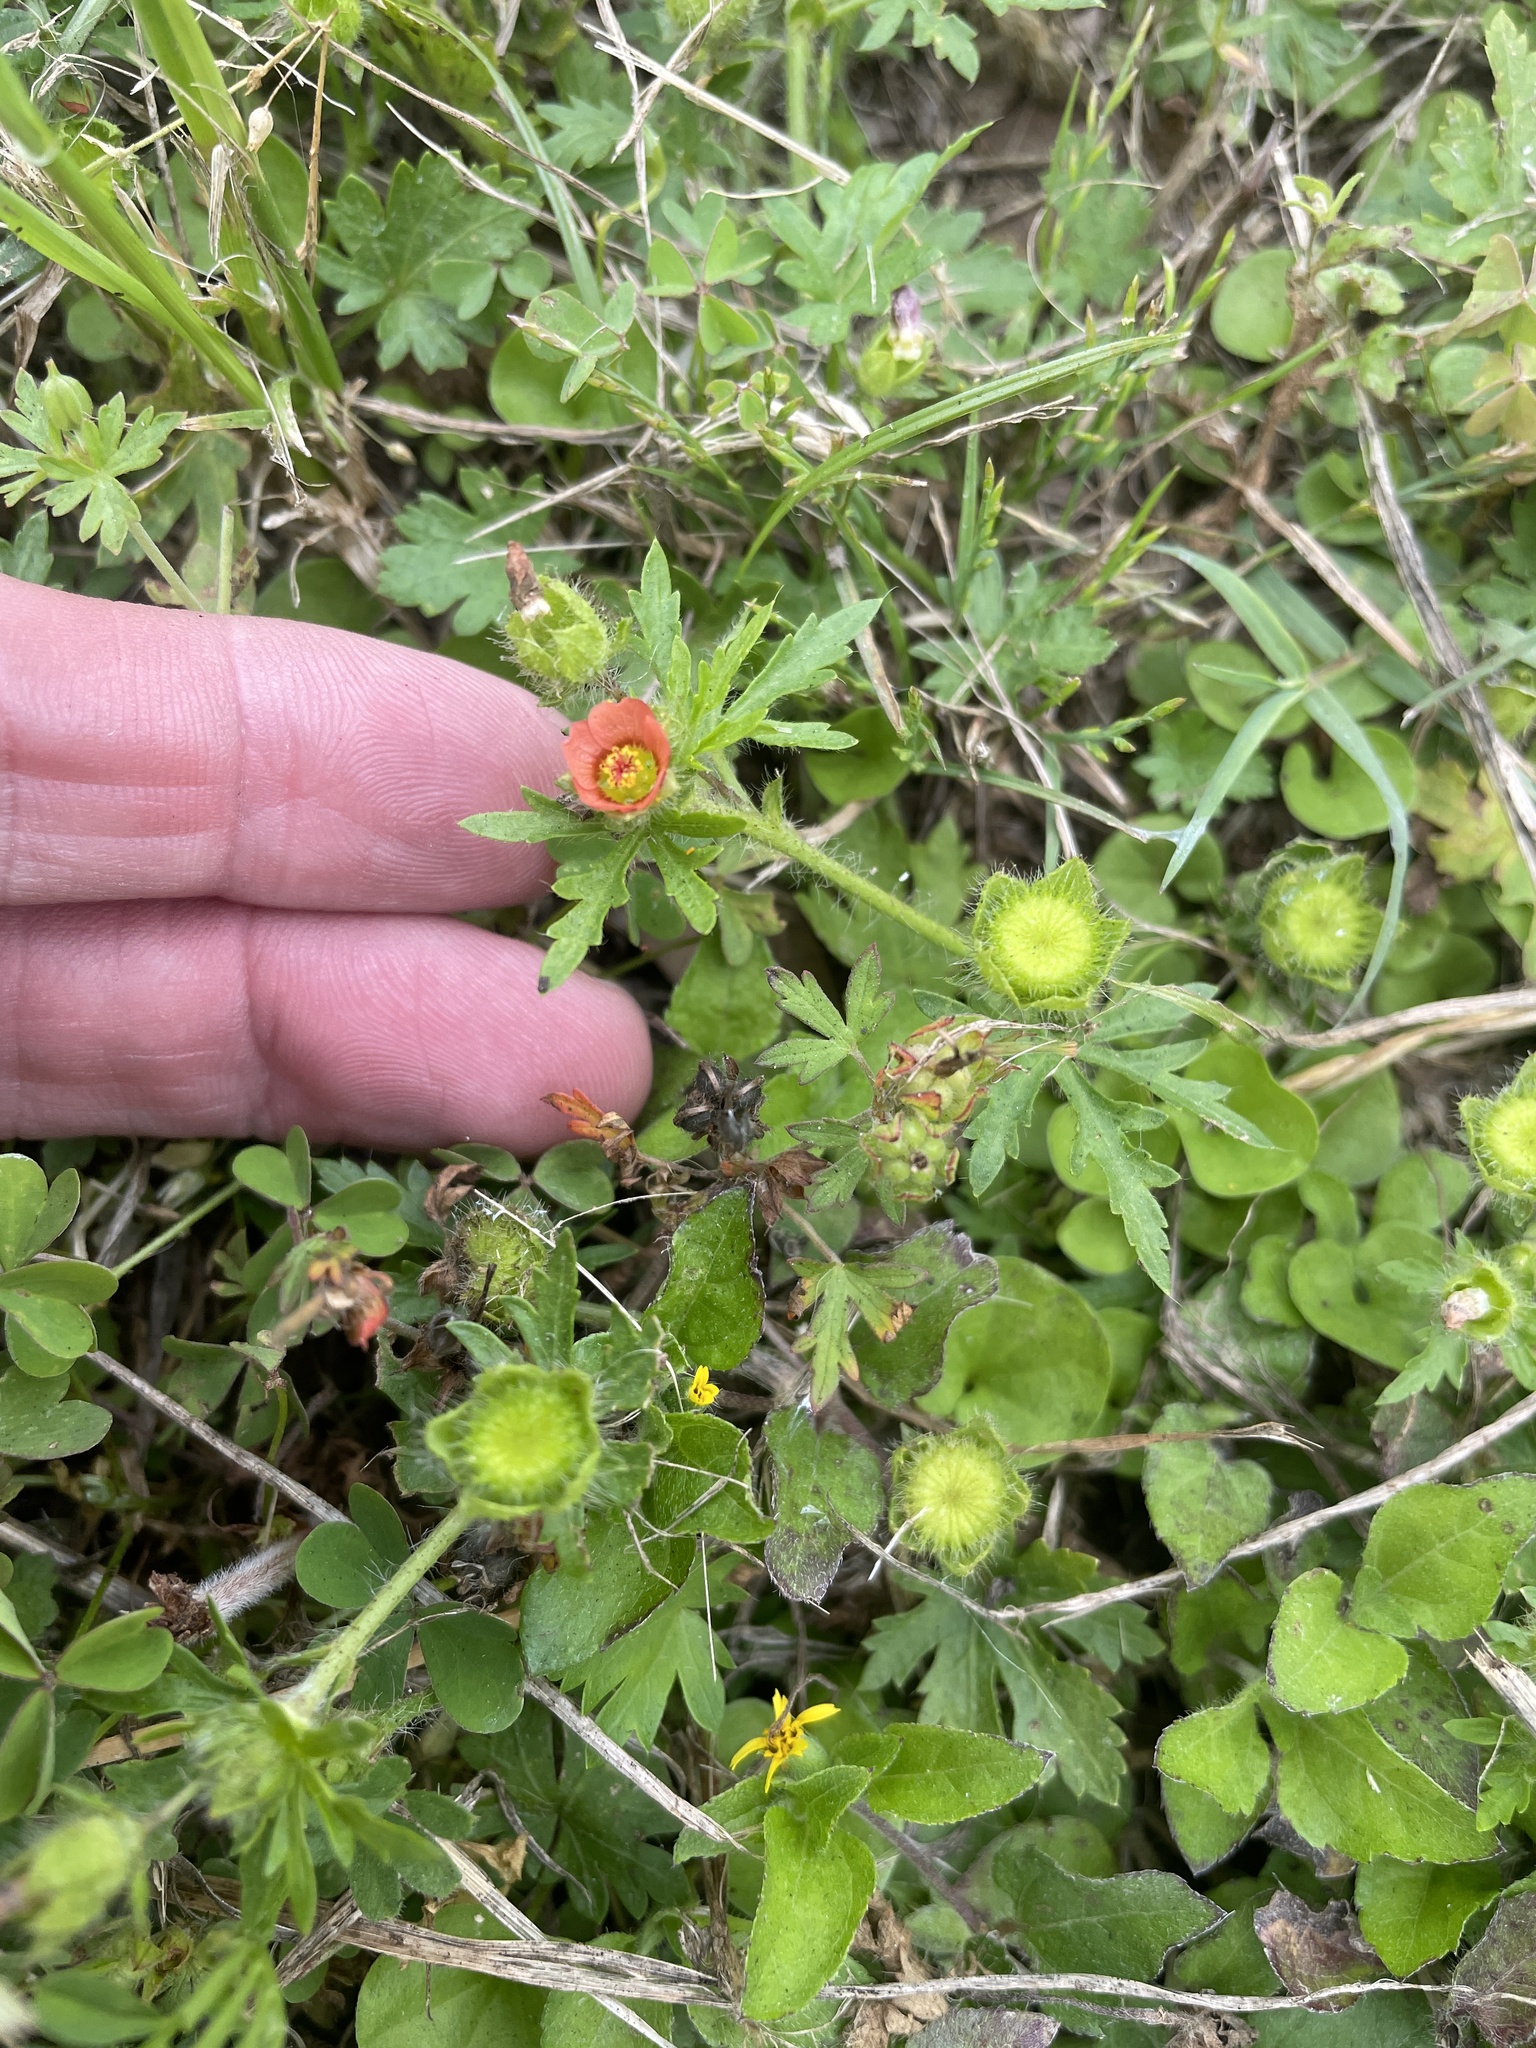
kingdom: Plantae
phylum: Tracheophyta
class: Magnoliopsida
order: Malvales
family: Malvaceae
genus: Modiola
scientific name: Modiola caroliniana
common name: Carolina bristlemallow
